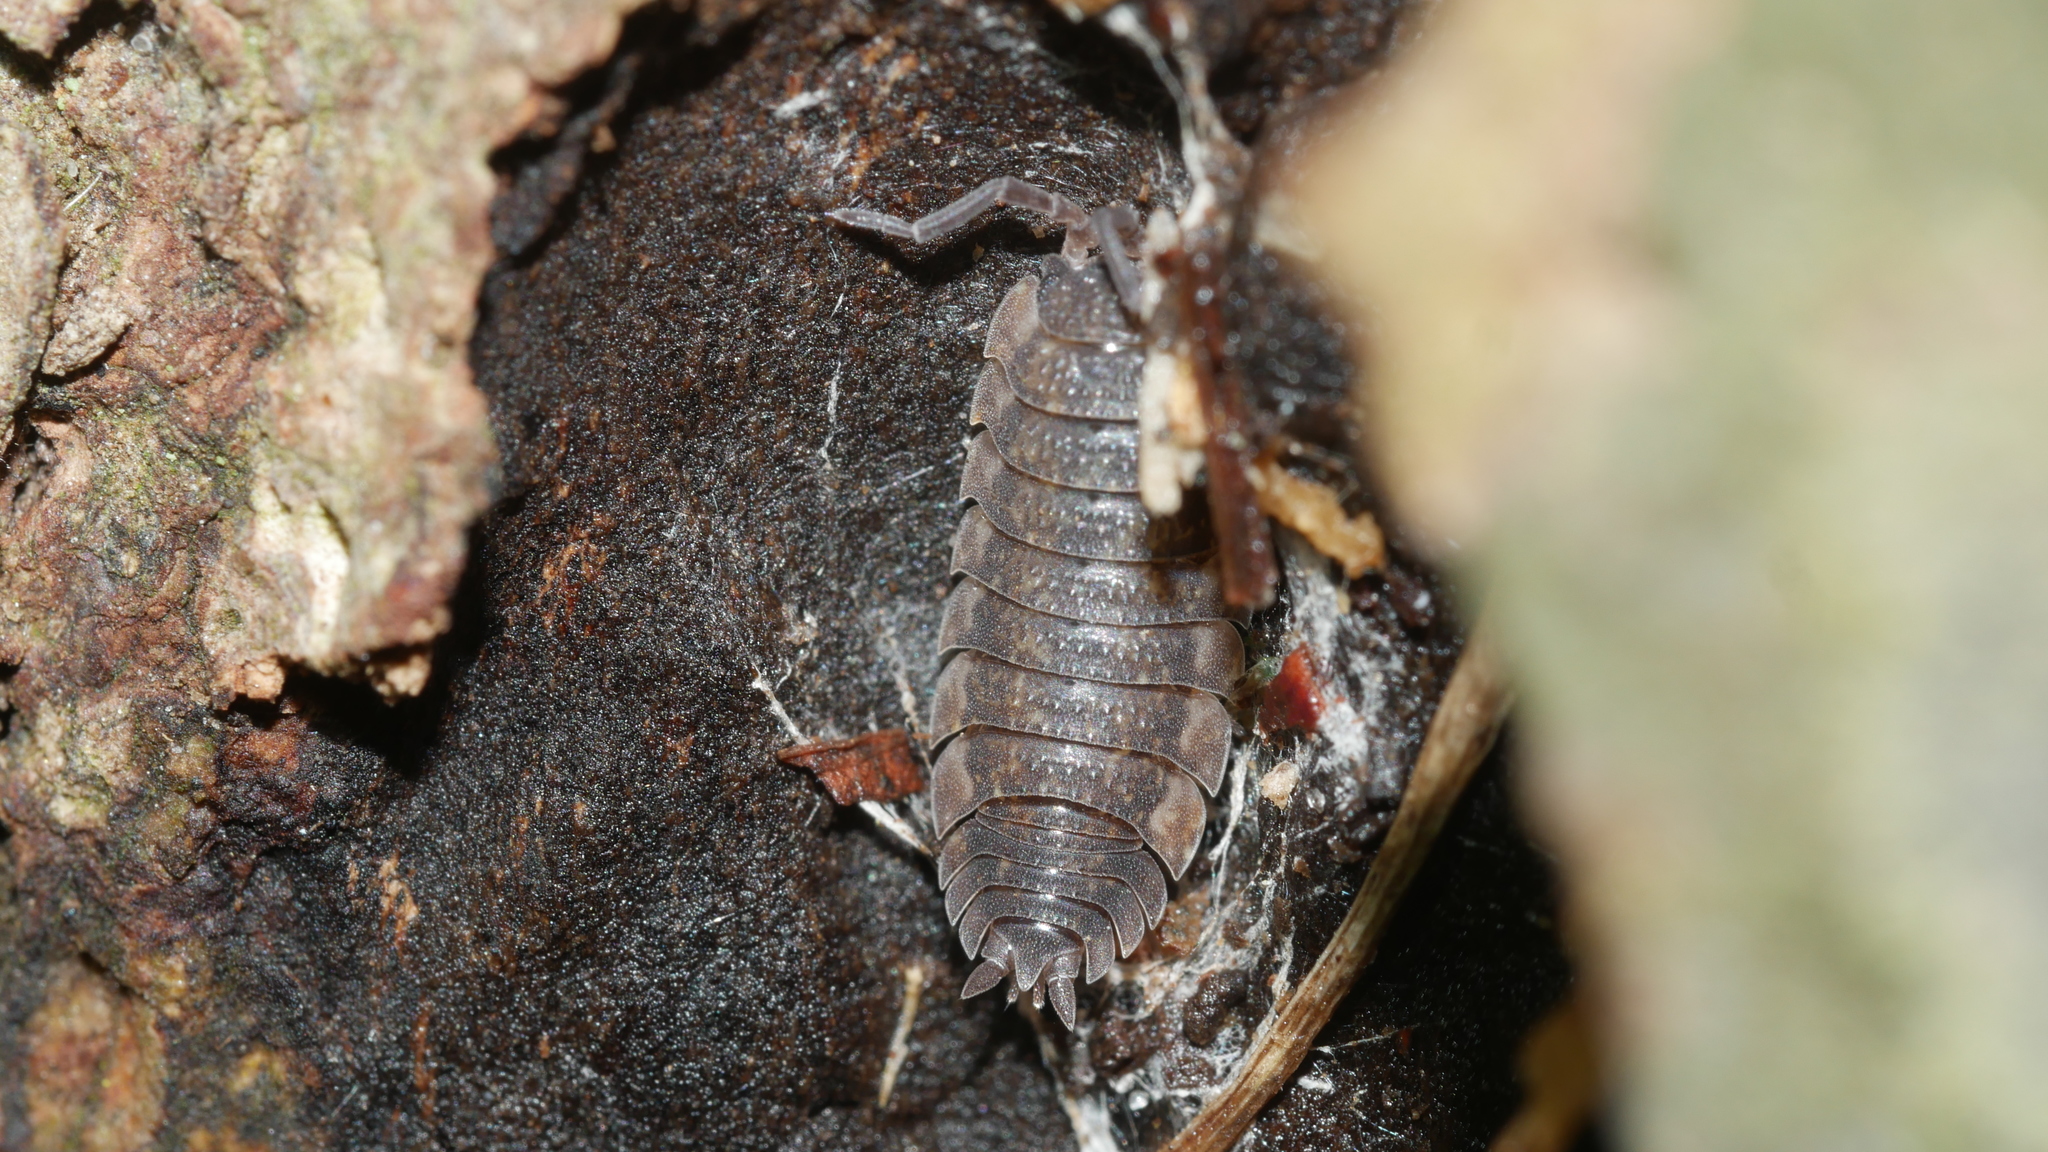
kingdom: Animalia
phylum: Arthropoda
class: Malacostraca
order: Isopoda
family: Porcellionidae
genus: Porcellio
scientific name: Porcellio scaber
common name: Common rough woodlouse
